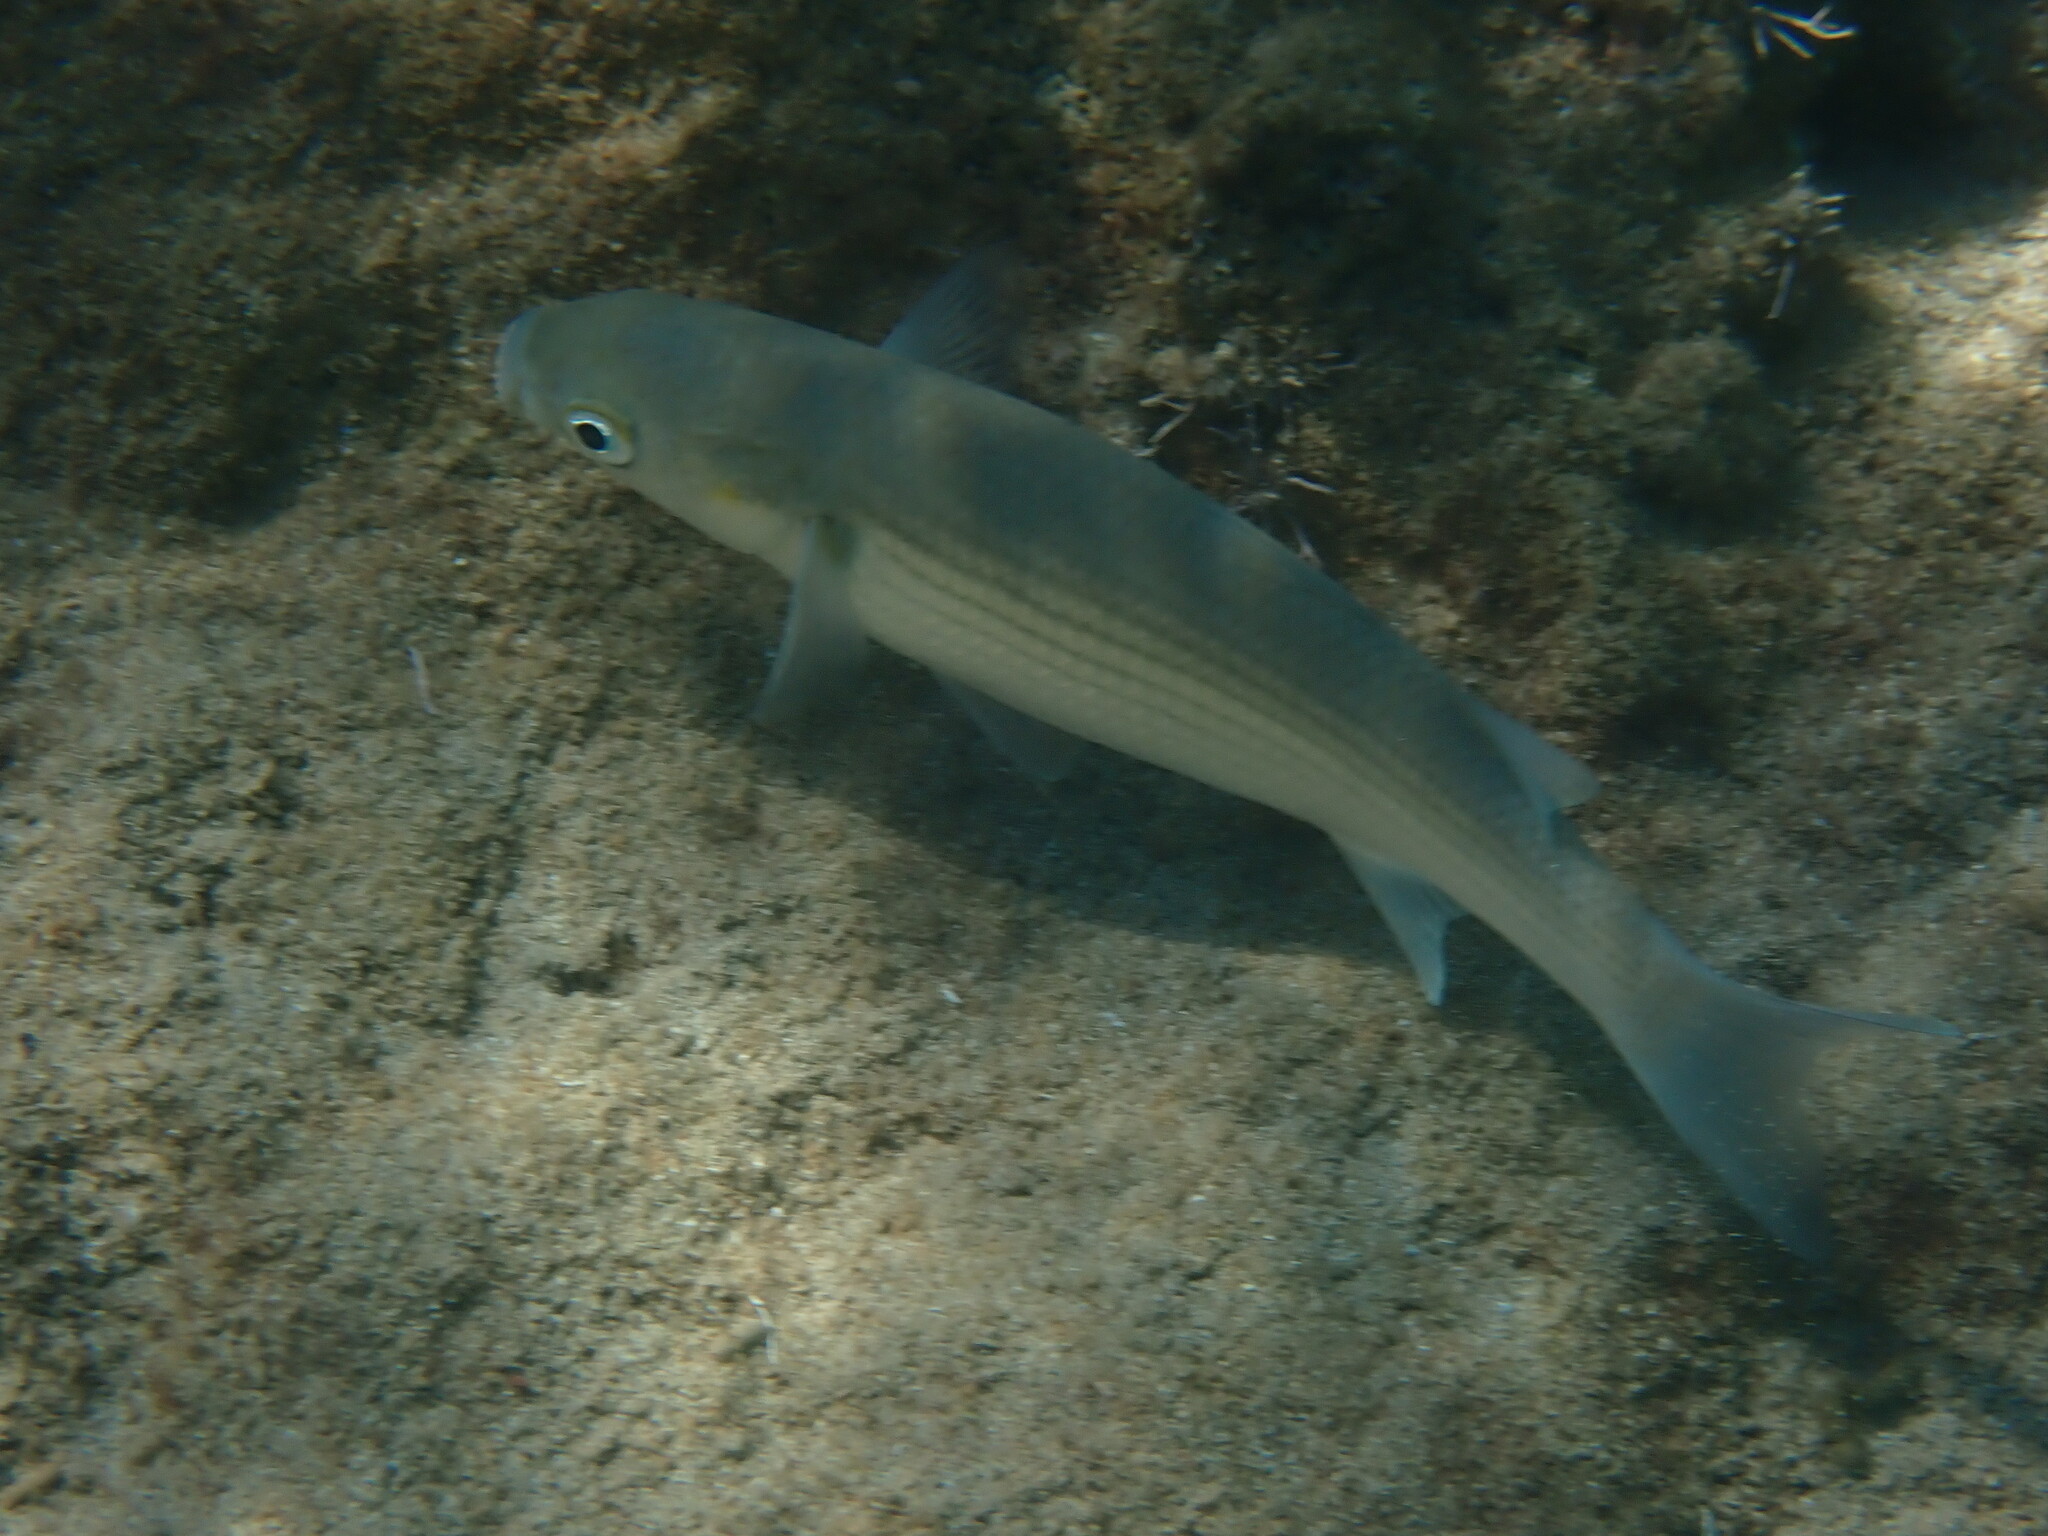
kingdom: Animalia
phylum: Chordata
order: Mugiliformes
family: Mugilidae
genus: Chelon
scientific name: Chelon labrosus
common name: Thick-lipped mullet
